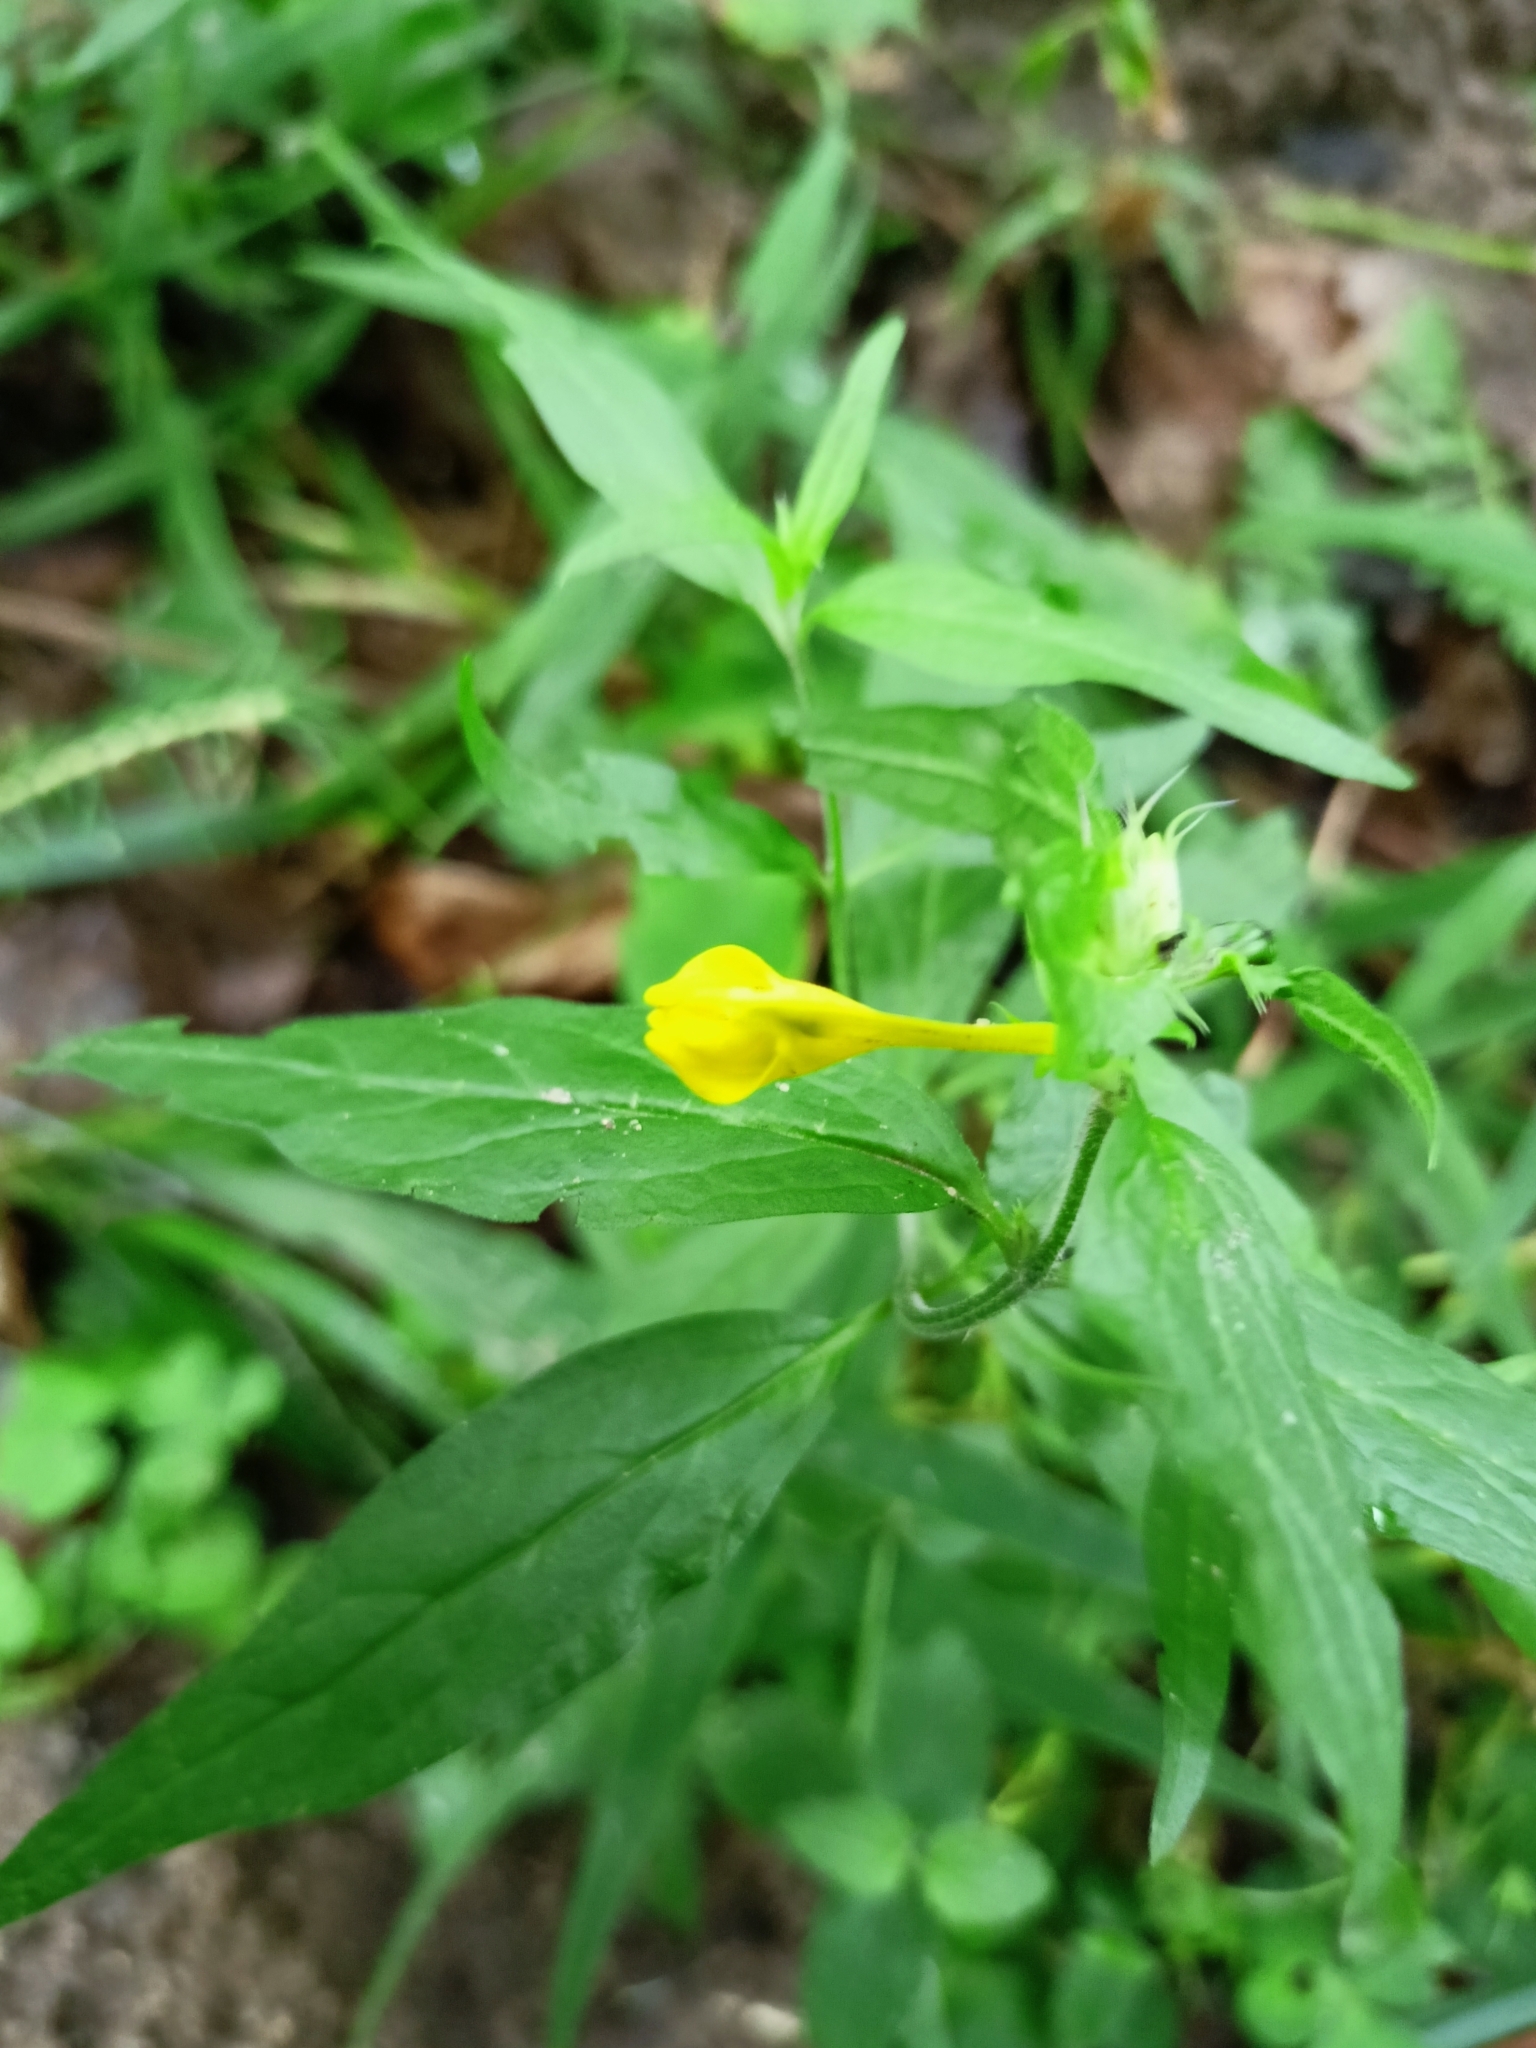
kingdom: Plantae
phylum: Tracheophyta
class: Magnoliopsida
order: Lamiales
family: Orobanchaceae
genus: Melampyrum
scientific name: Melampyrum nemorosum
